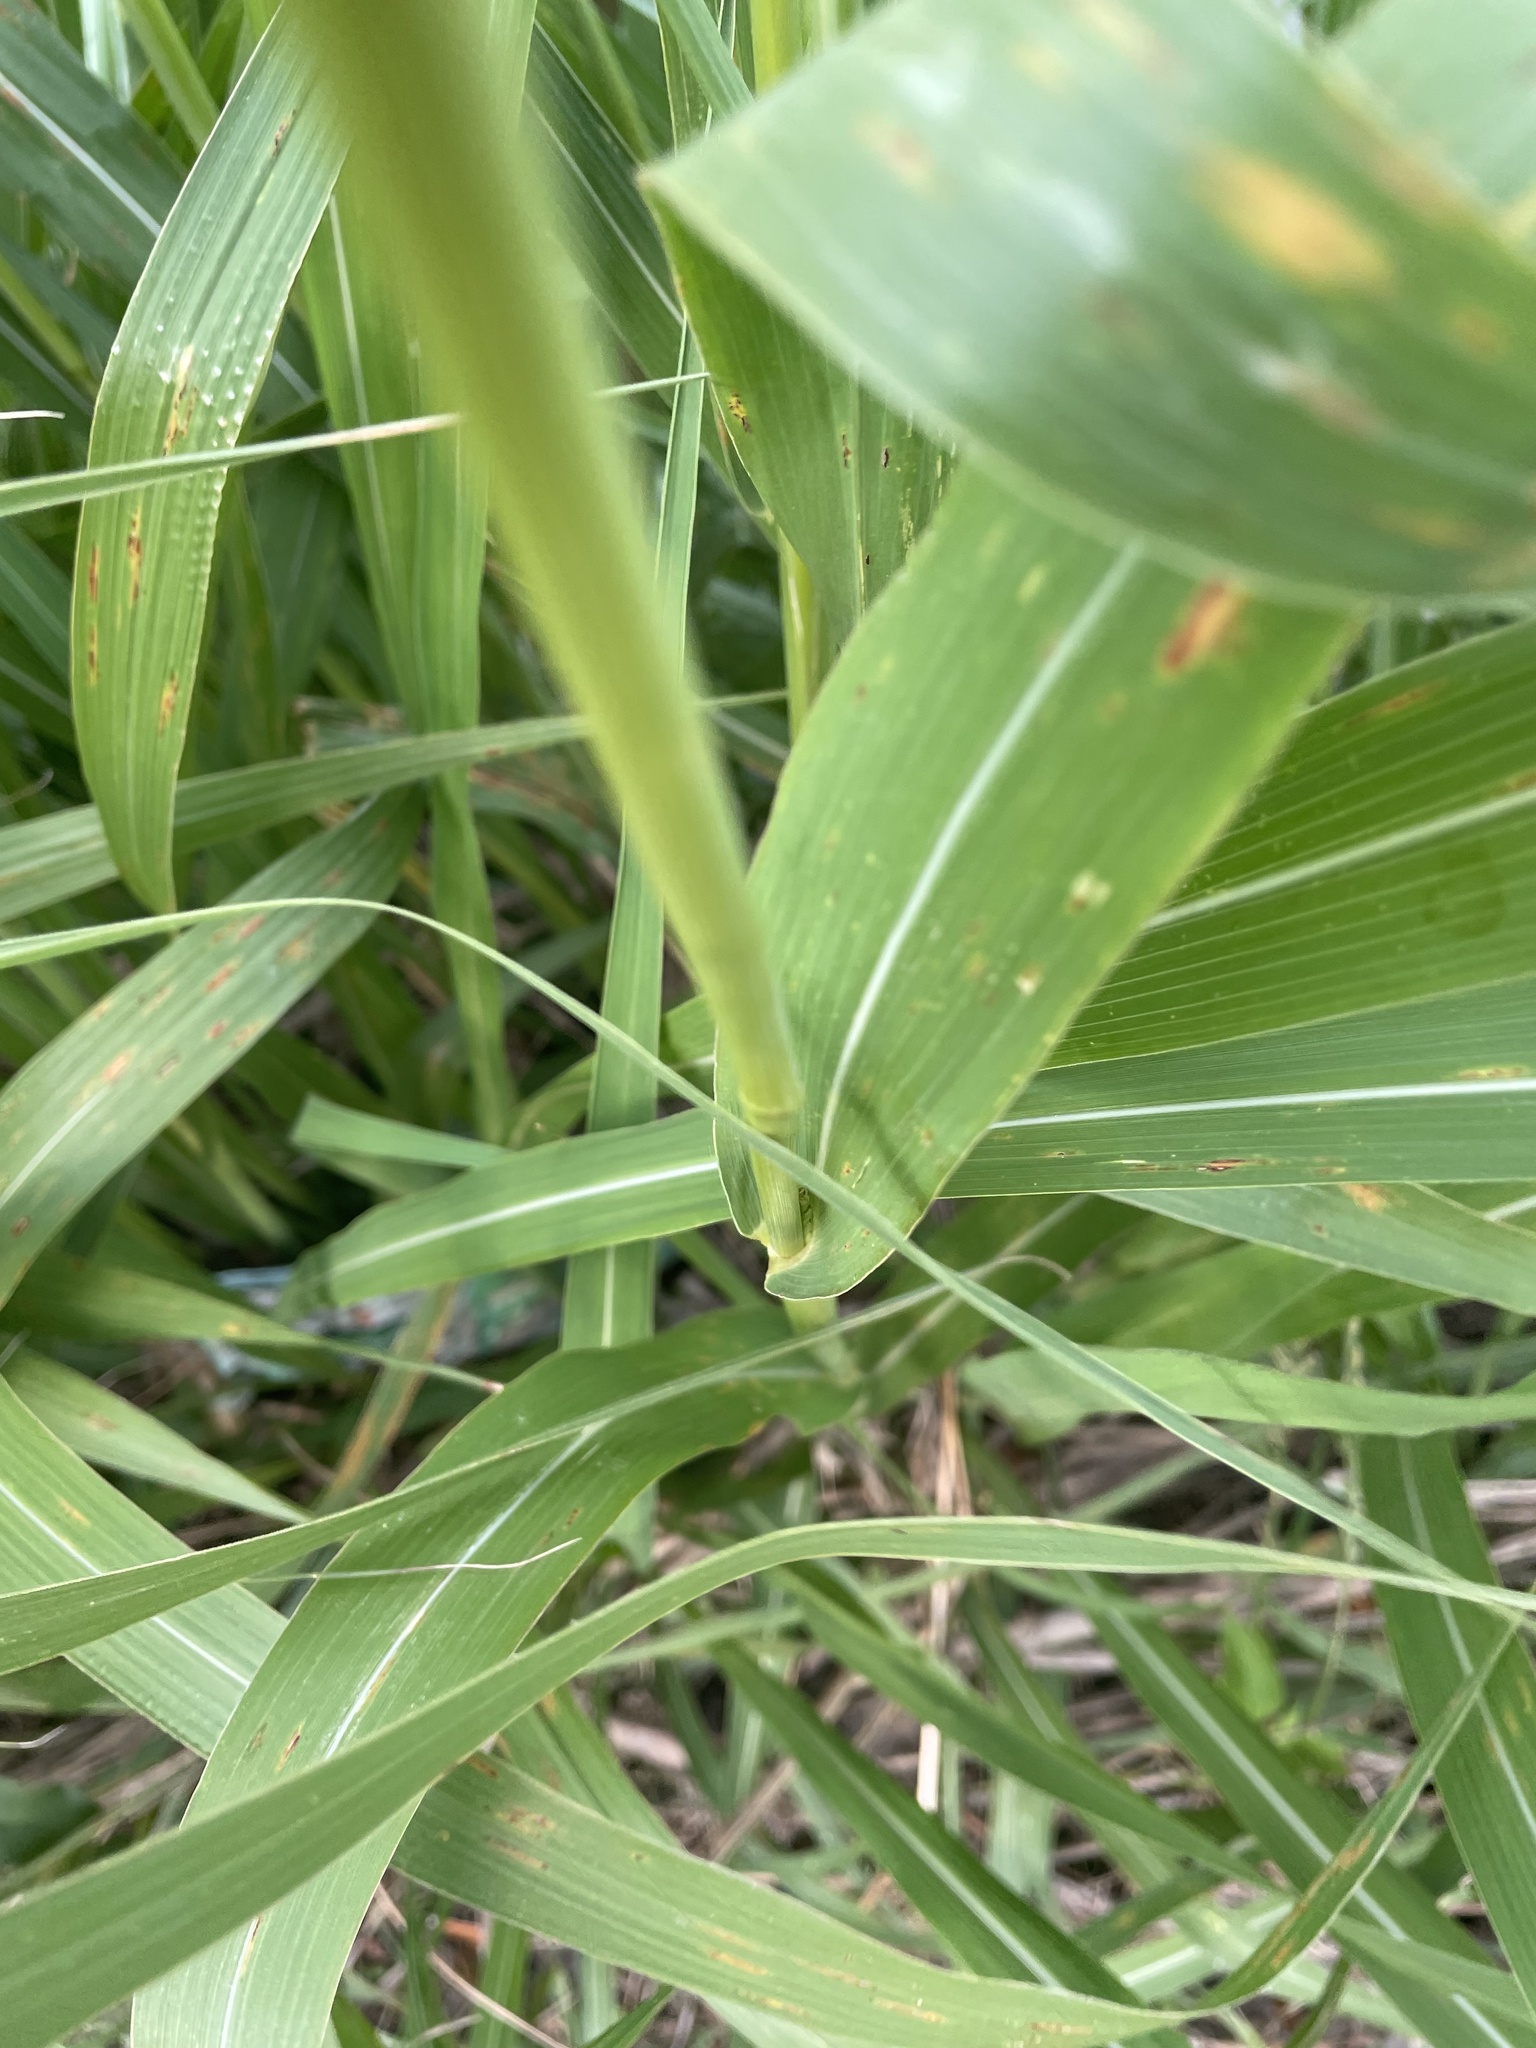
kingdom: Plantae
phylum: Tracheophyta
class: Liliopsida
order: Poales
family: Poaceae
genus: Tripsacum
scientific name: Tripsacum dactyloides
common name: Buffalo-grass
